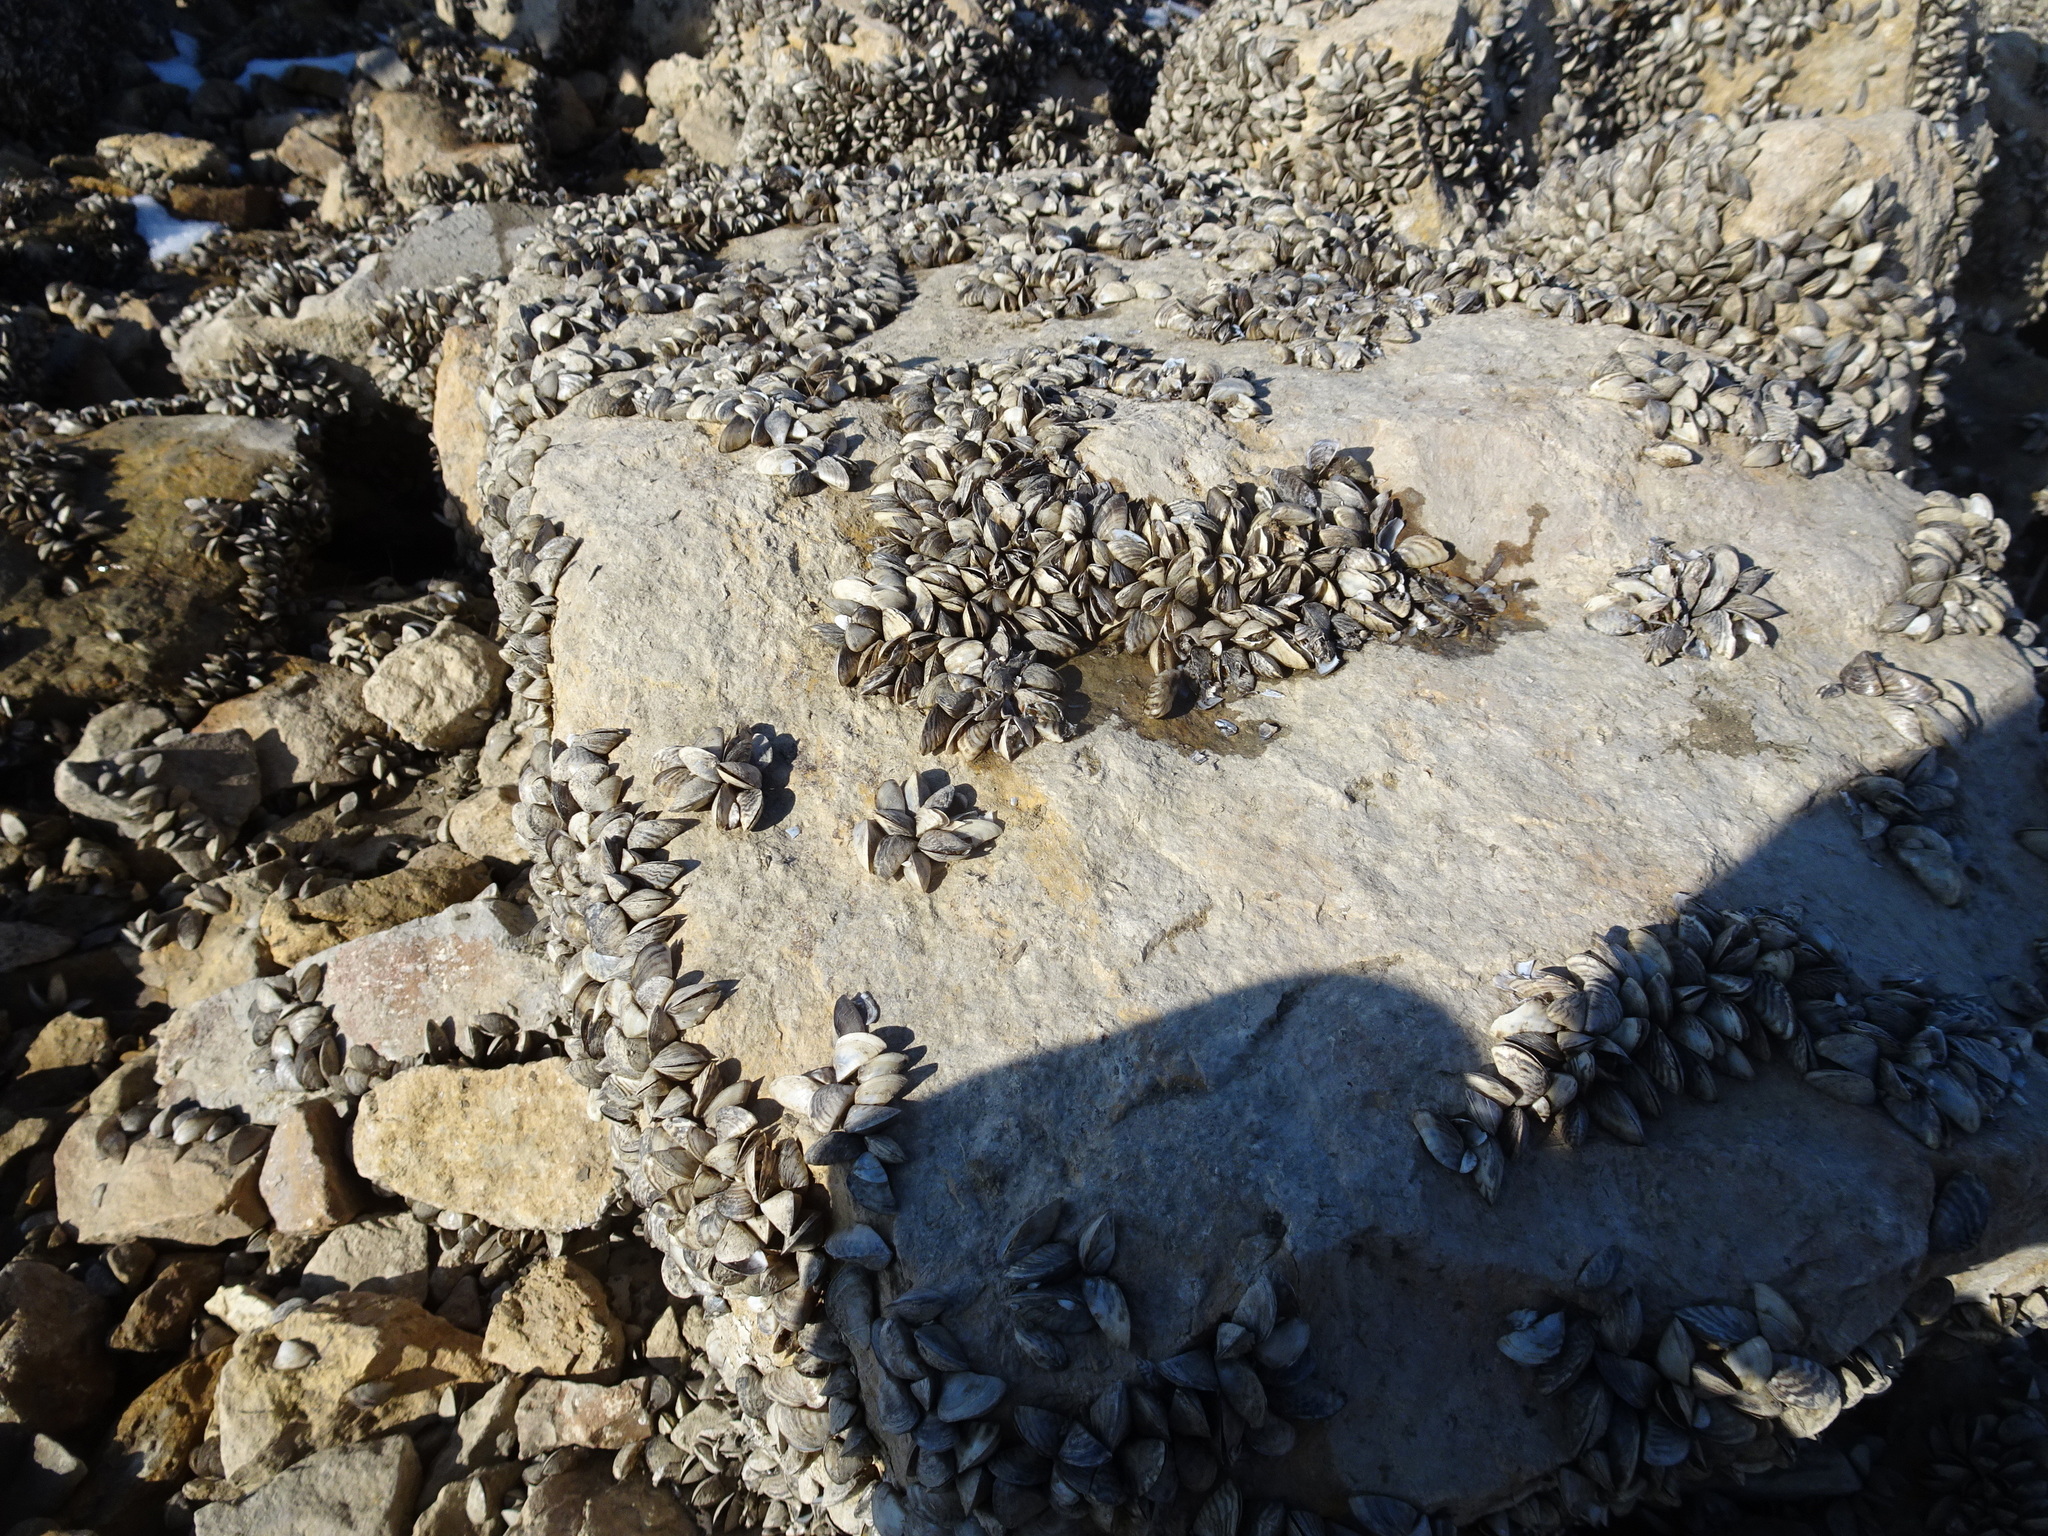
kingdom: Animalia
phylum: Mollusca
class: Bivalvia
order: Myida
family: Dreissenidae
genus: Dreissena
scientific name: Dreissena polymorpha
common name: Zebra mussel
